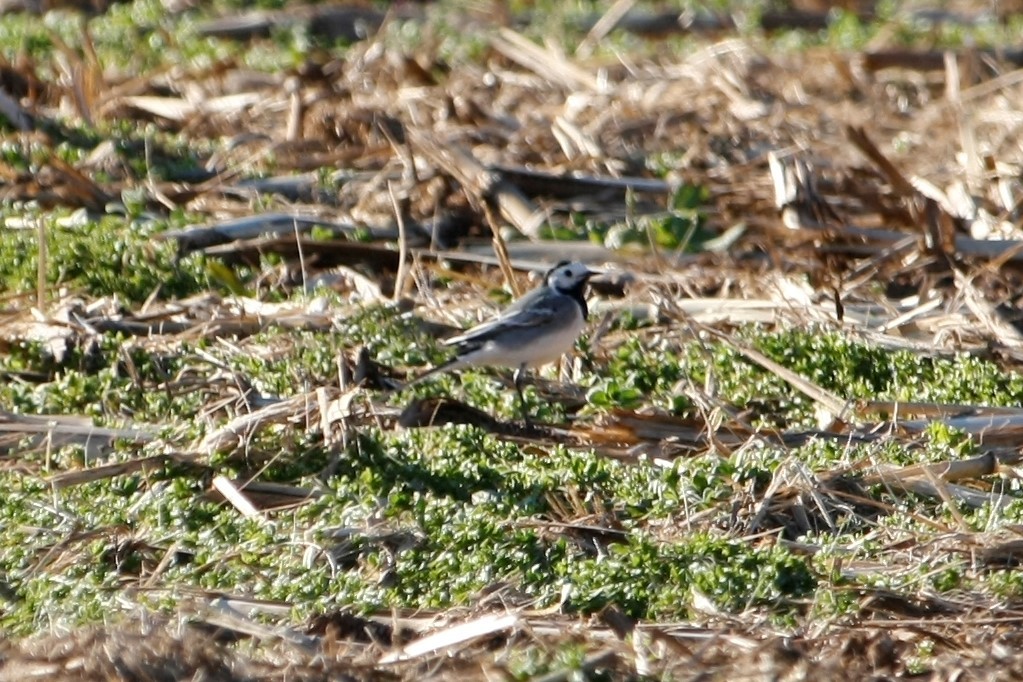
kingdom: Animalia
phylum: Chordata
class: Aves
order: Passeriformes
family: Motacillidae
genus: Motacilla
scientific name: Motacilla alba
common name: White wagtail
